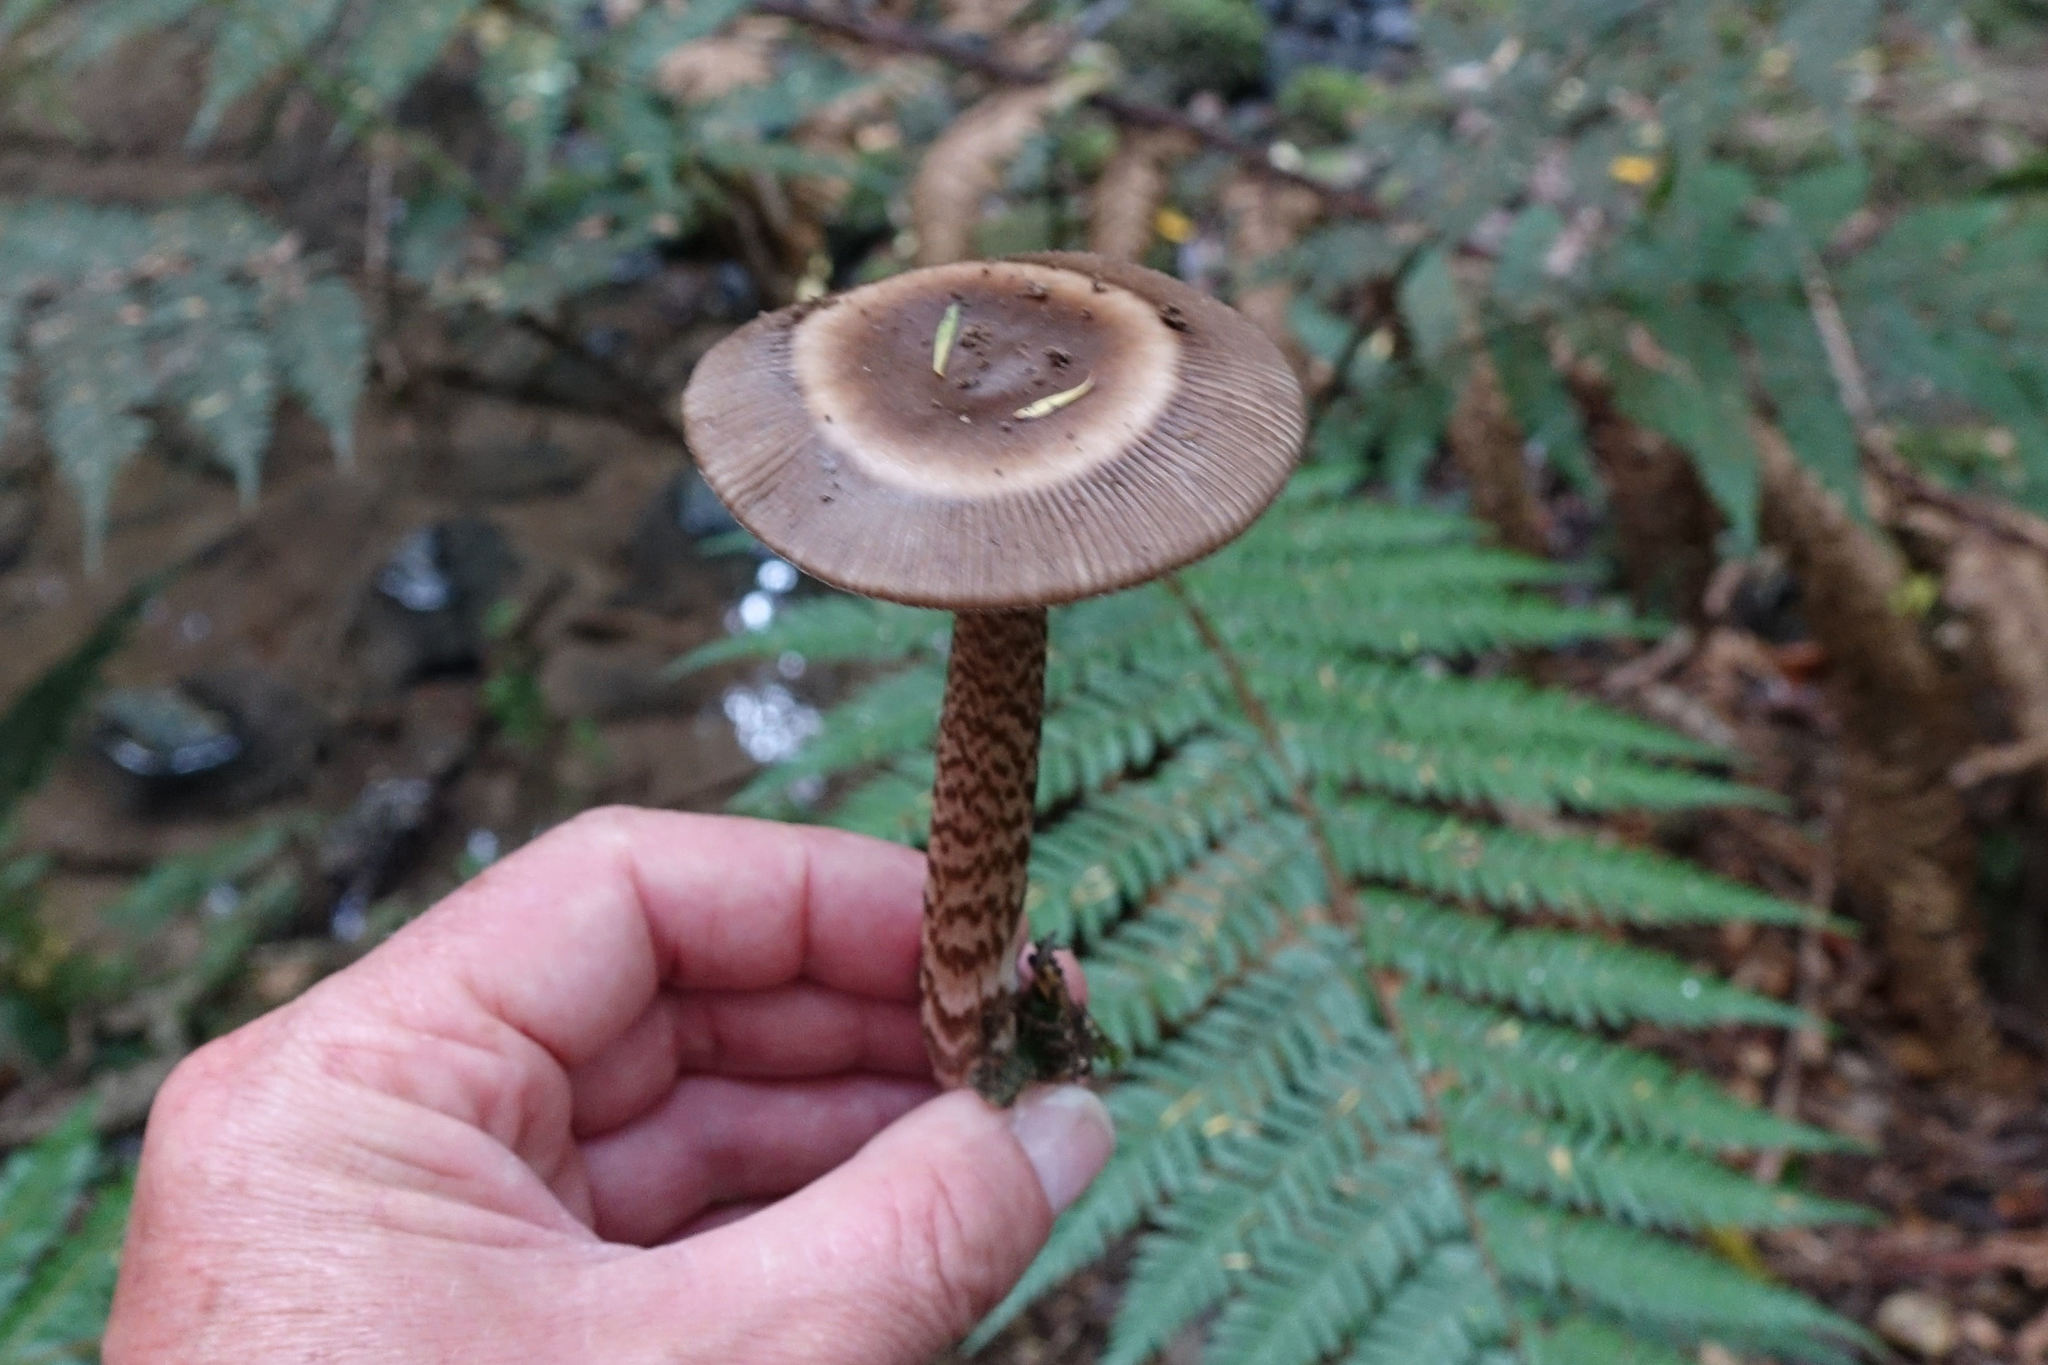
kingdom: Fungi
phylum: Basidiomycota
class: Agaricomycetes
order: Agaricales
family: Amanitaceae
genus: Amanita
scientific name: Amanita pekeoides
